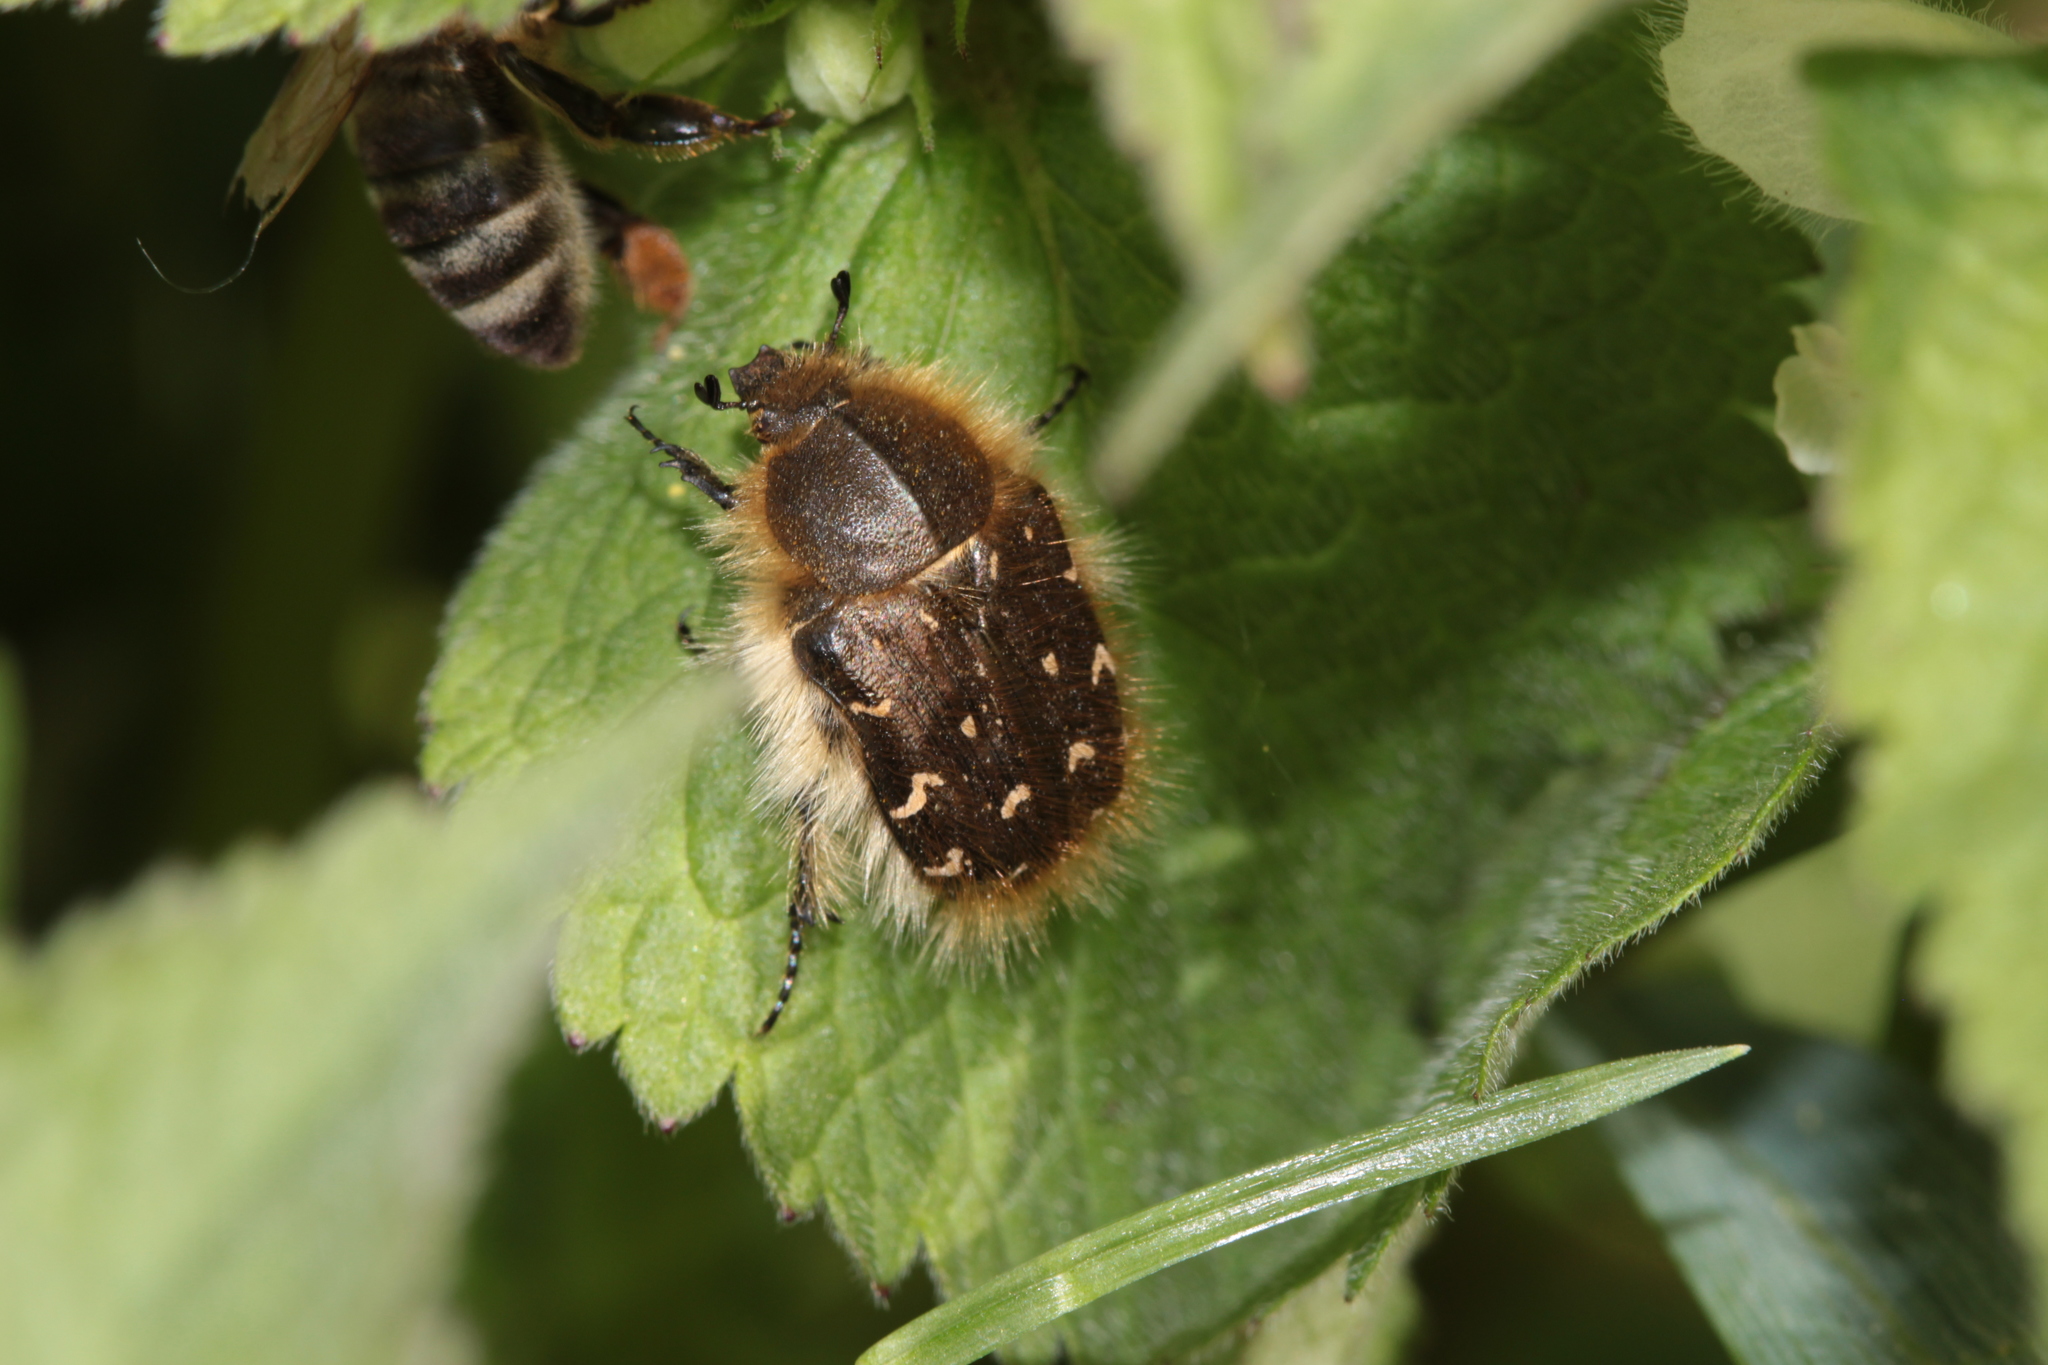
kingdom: Animalia
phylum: Arthropoda
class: Insecta
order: Coleoptera
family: Scarabaeidae
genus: Tropinota
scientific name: Tropinota hirta
